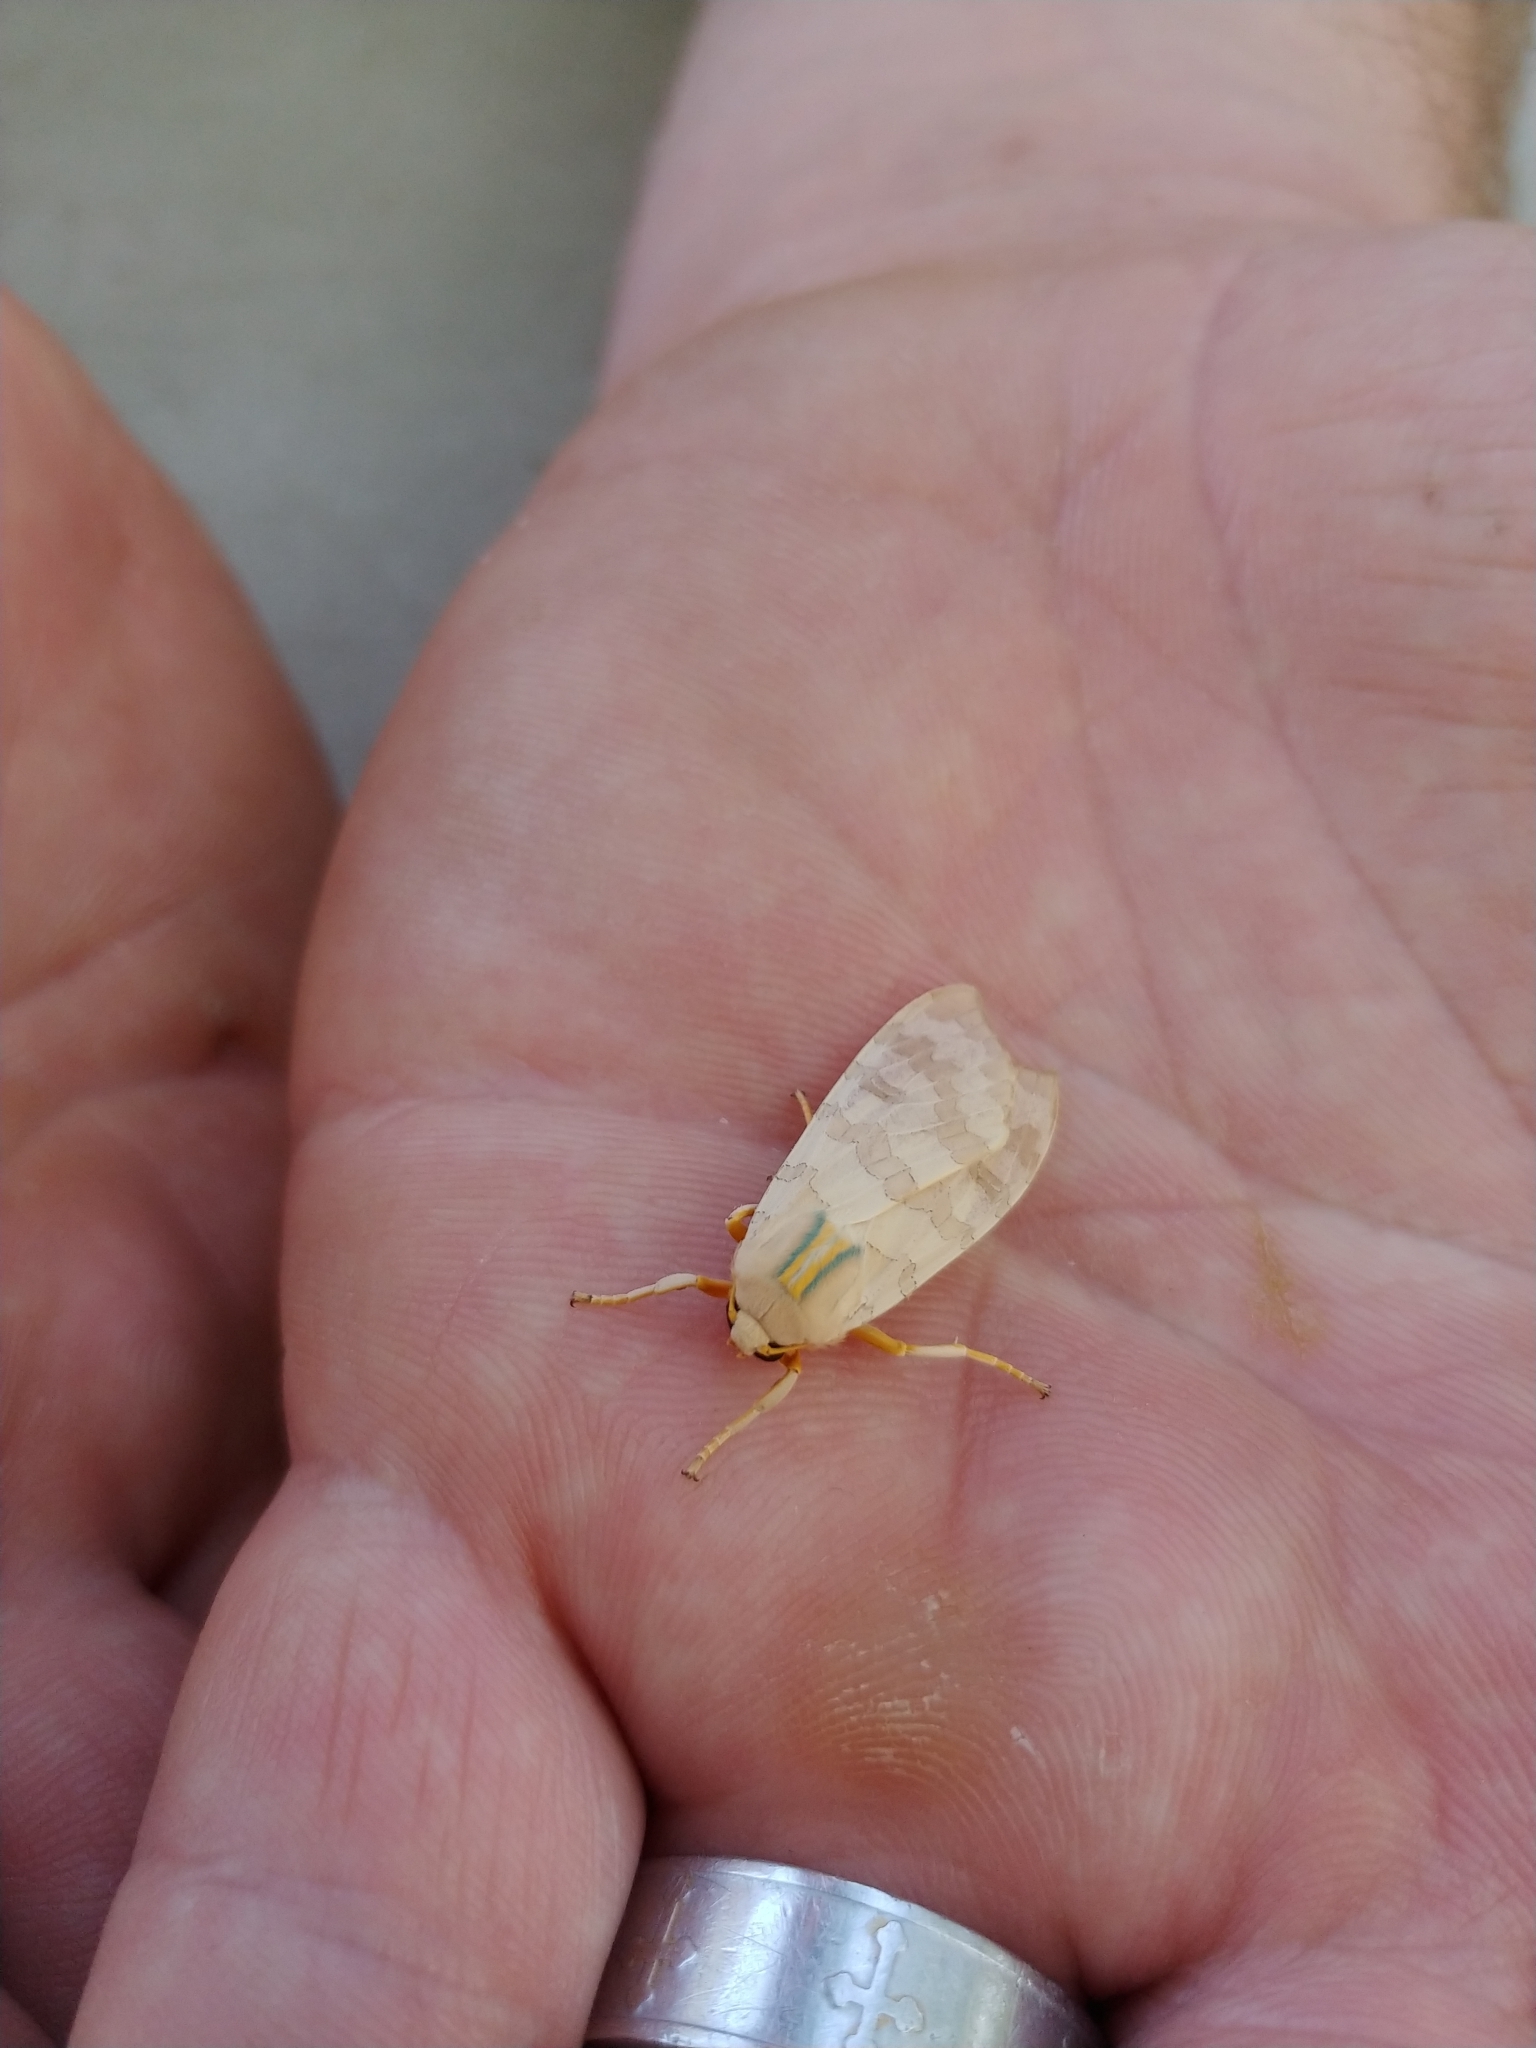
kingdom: Animalia
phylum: Arthropoda
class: Insecta
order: Lepidoptera
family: Erebidae
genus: Halysidota
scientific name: Halysidota tessellaris
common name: Banded tussock moth
